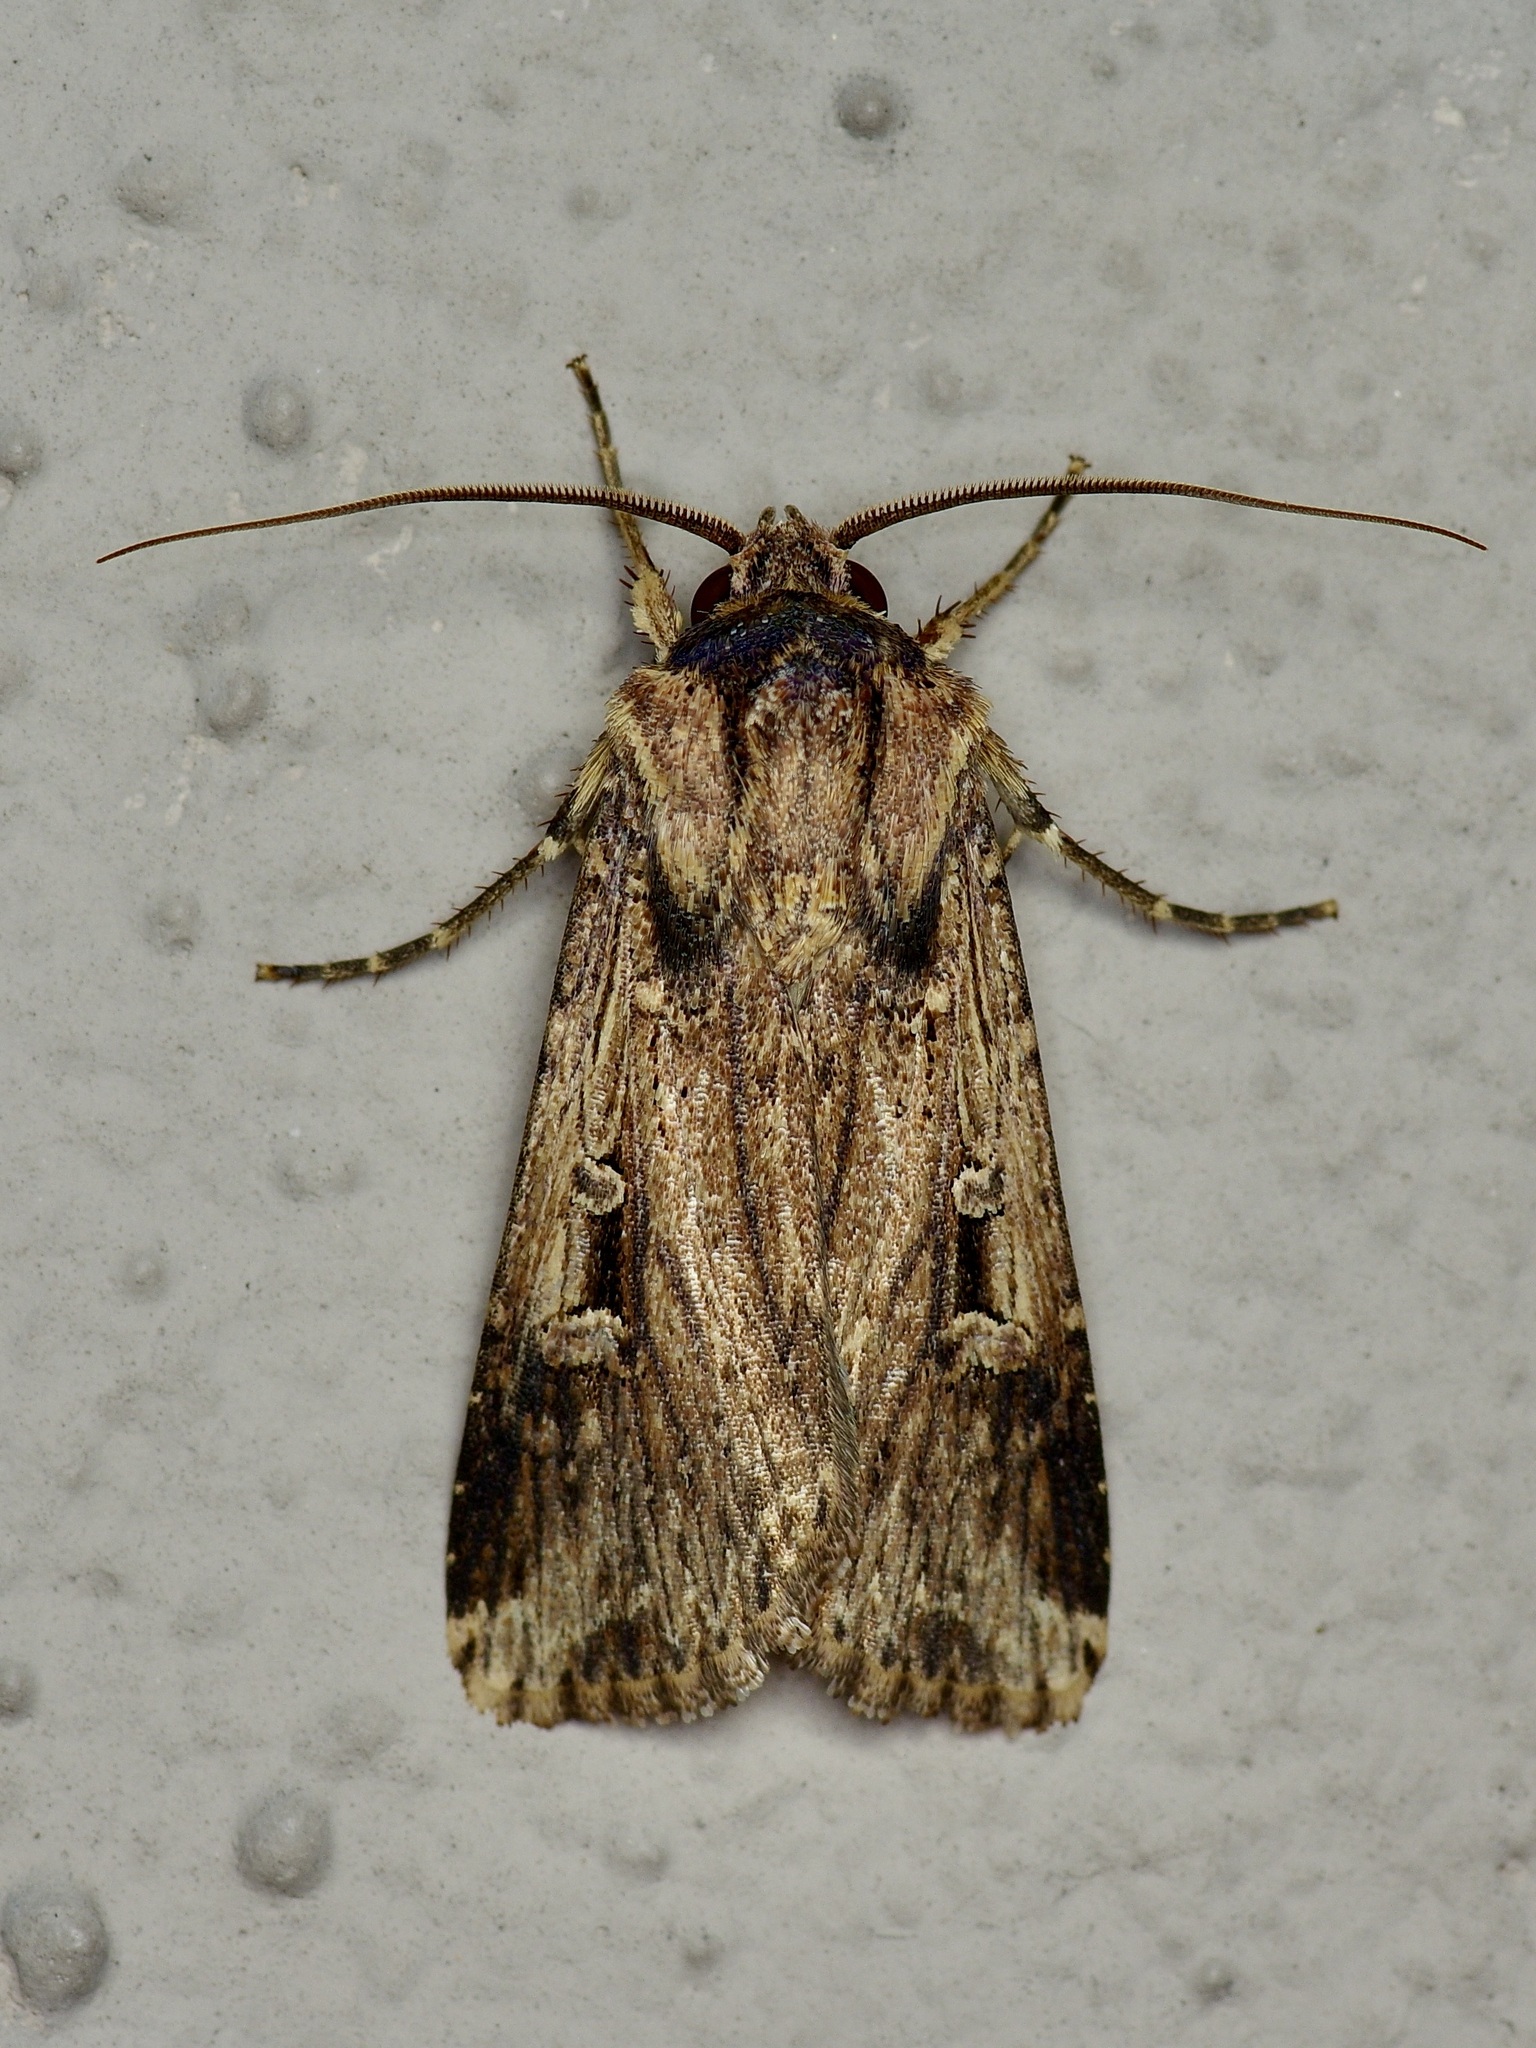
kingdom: Animalia
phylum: Arthropoda
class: Insecta
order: Lepidoptera
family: Noctuidae
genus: Feltia
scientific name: Feltia subterranea
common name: Granulate cutworm
